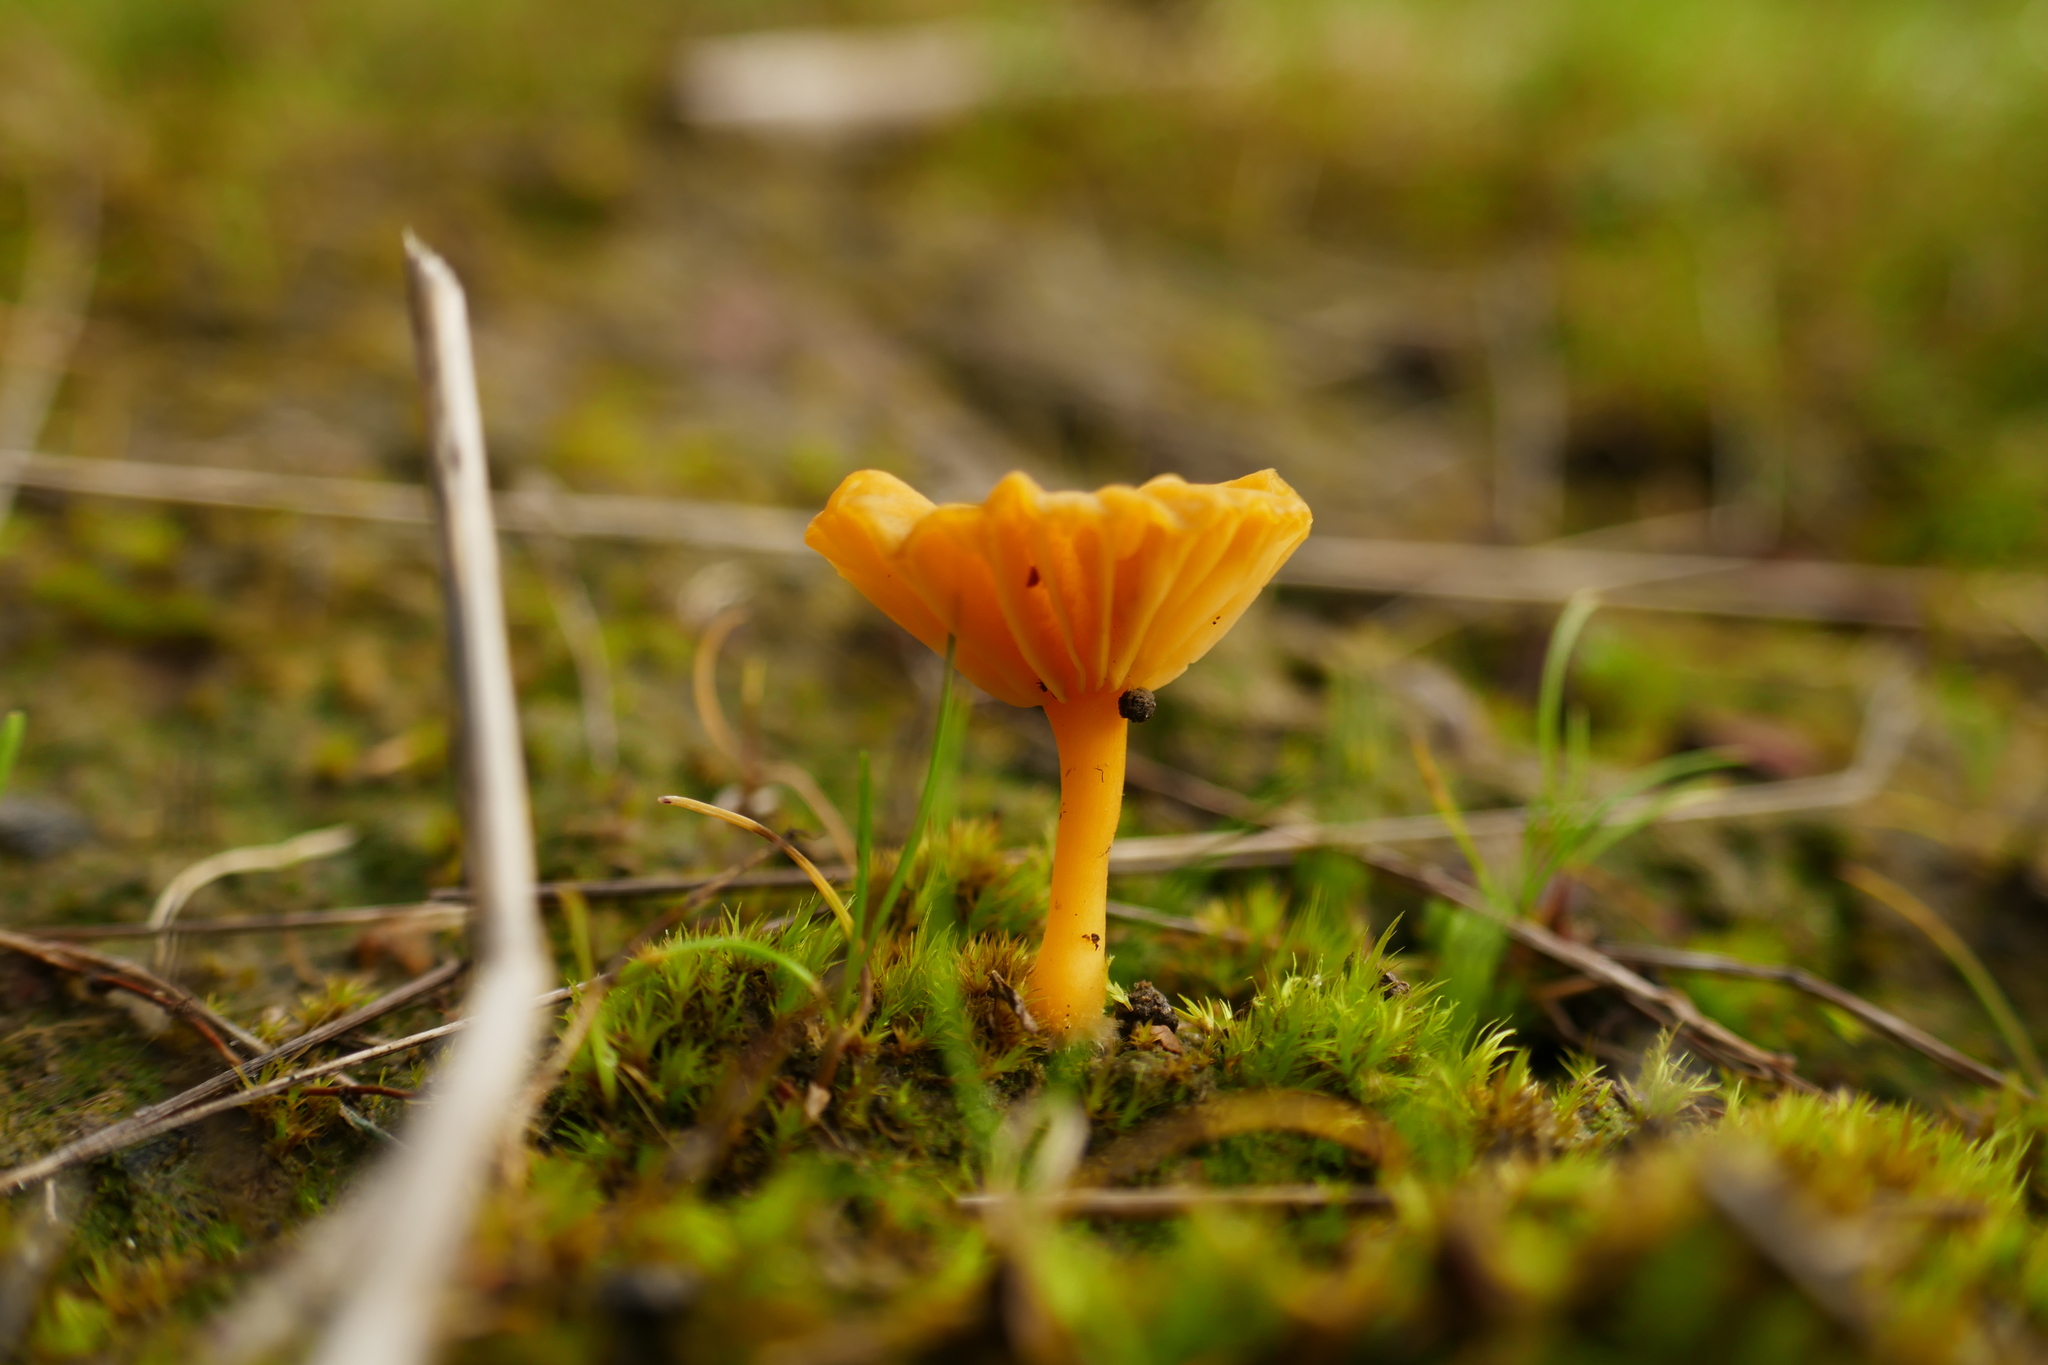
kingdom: Fungi
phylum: Basidiomycota
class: Agaricomycetes
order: Agaricales
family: Hygrophoraceae
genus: Lichenomphalia
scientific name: Lichenomphalia chromacea
